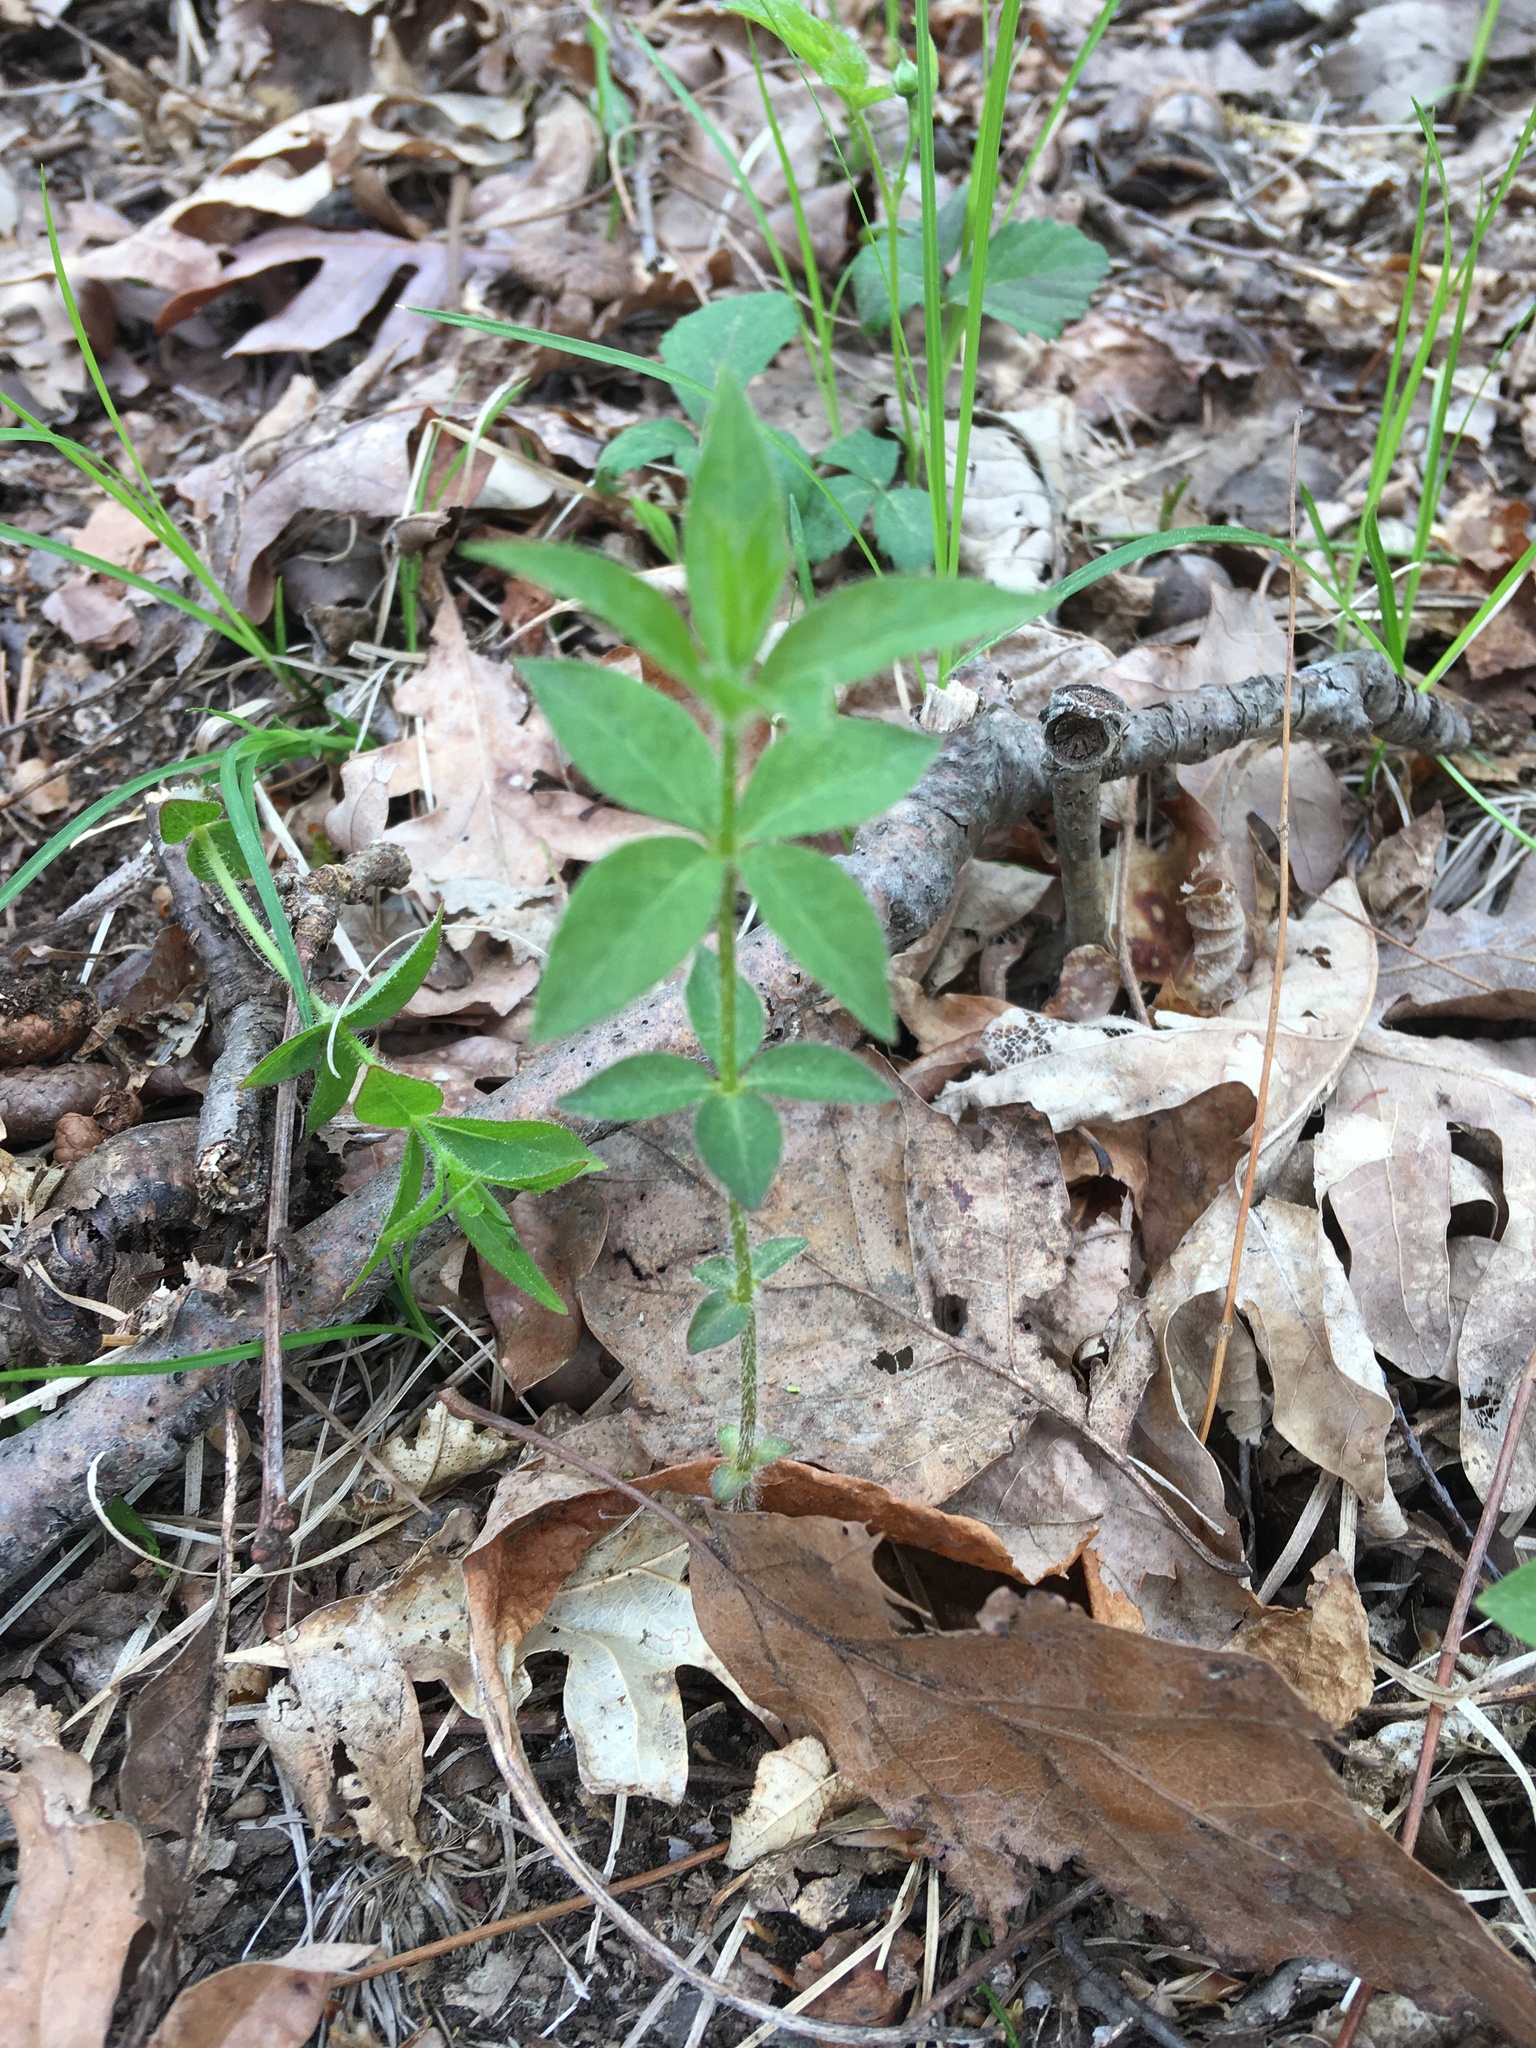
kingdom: Plantae
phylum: Tracheophyta
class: Magnoliopsida
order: Ericales
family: Primulaceae
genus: Lysimachia
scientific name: Lysimachia quadrifolia
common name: Whorled loosestrife
